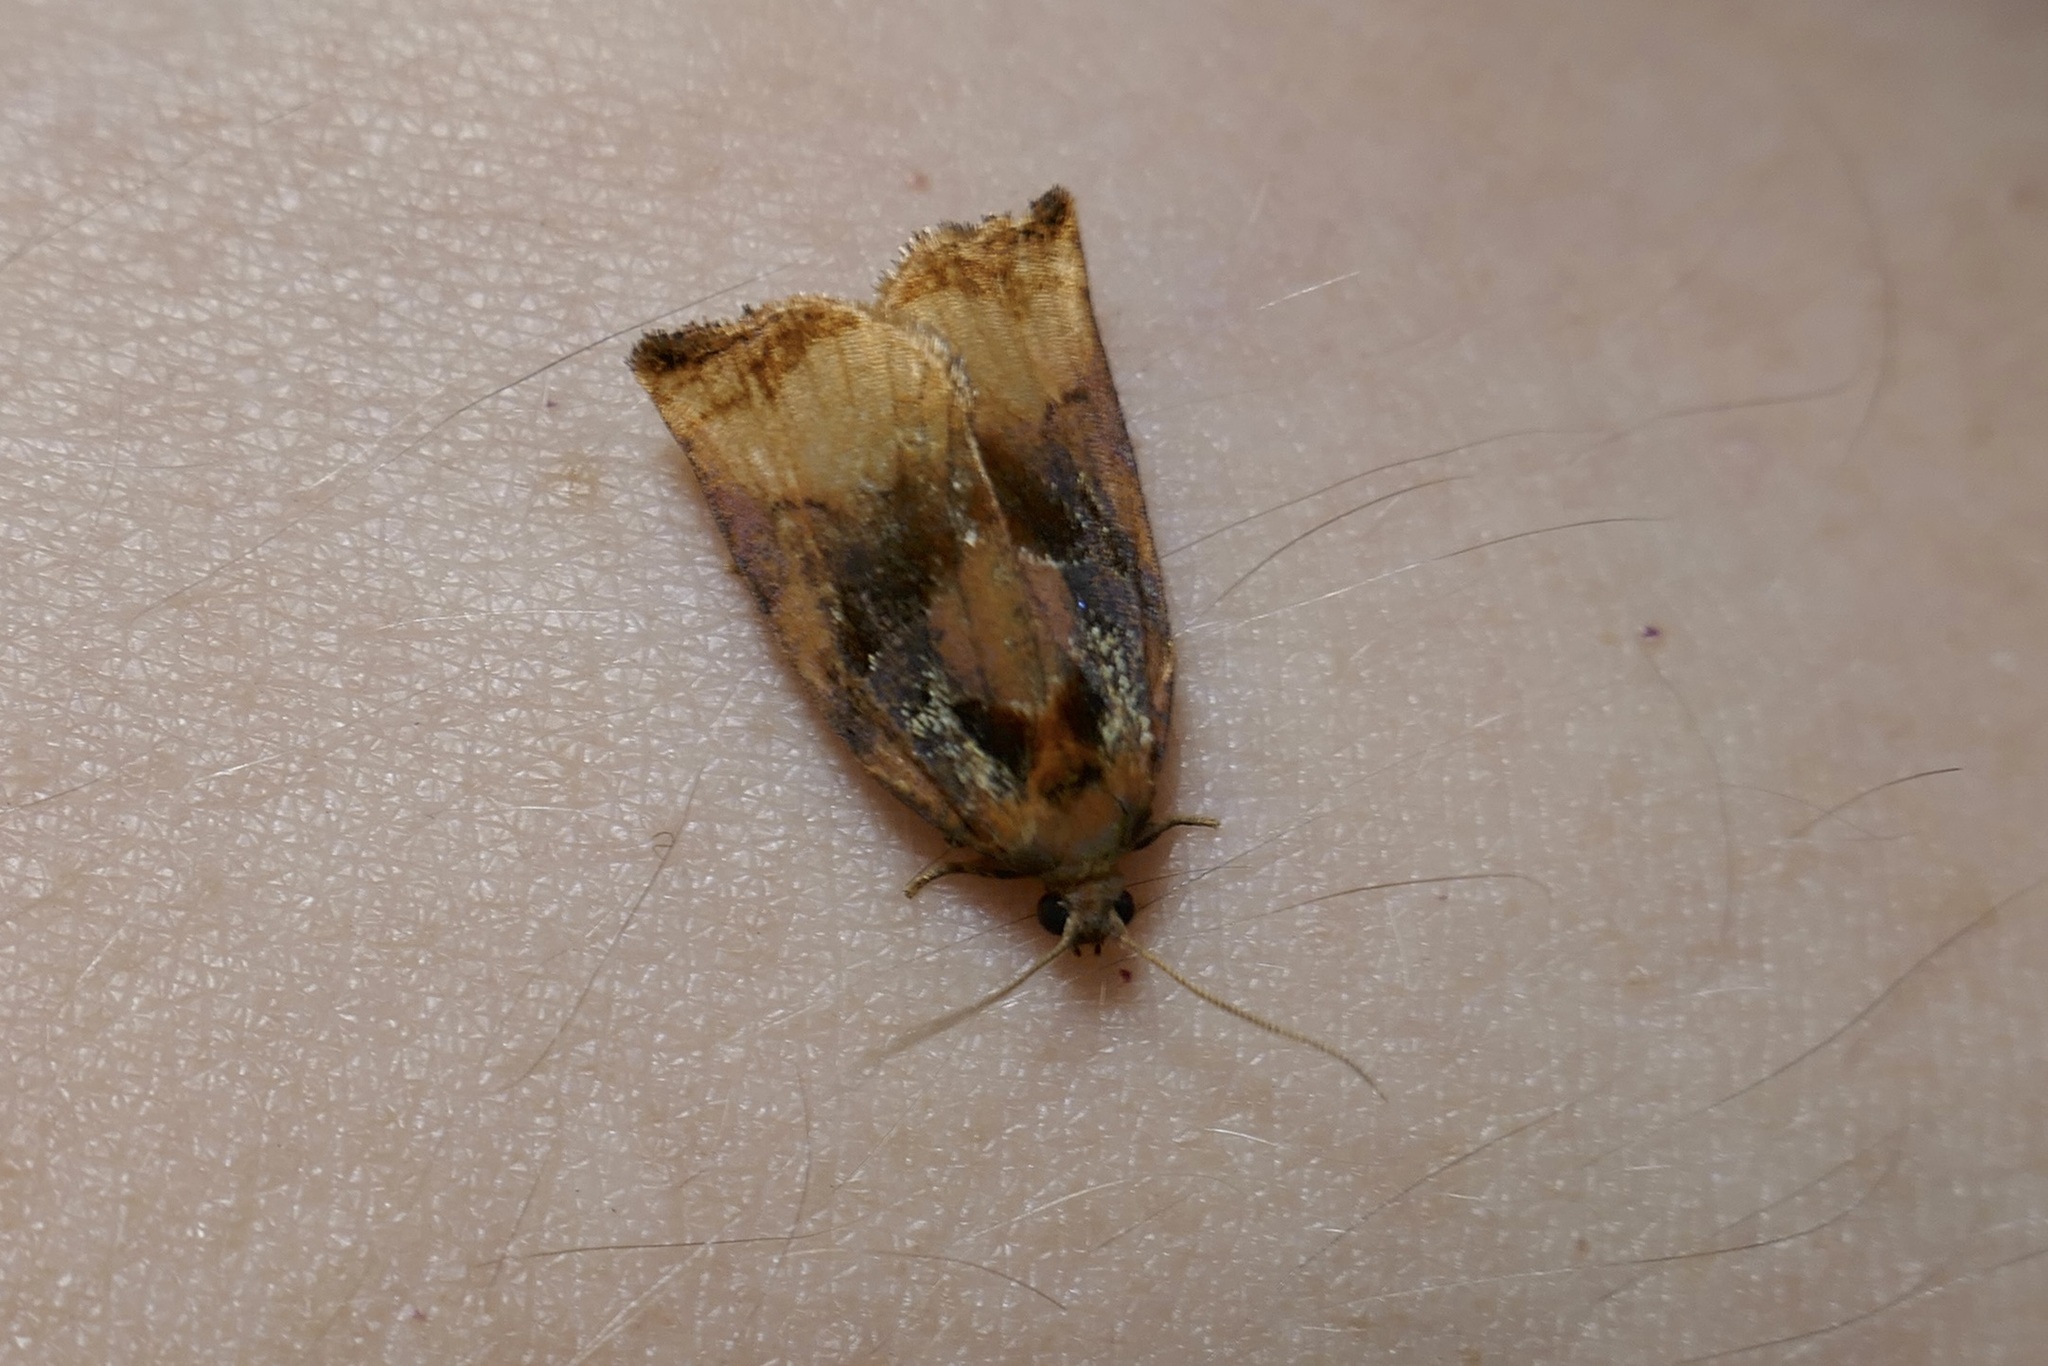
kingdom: Animalia
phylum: Arthropoda
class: Insecta
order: Lepidoptera
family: Tortricidae
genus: Archips
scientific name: Archips podana
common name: Large fruit-tree tortrix
